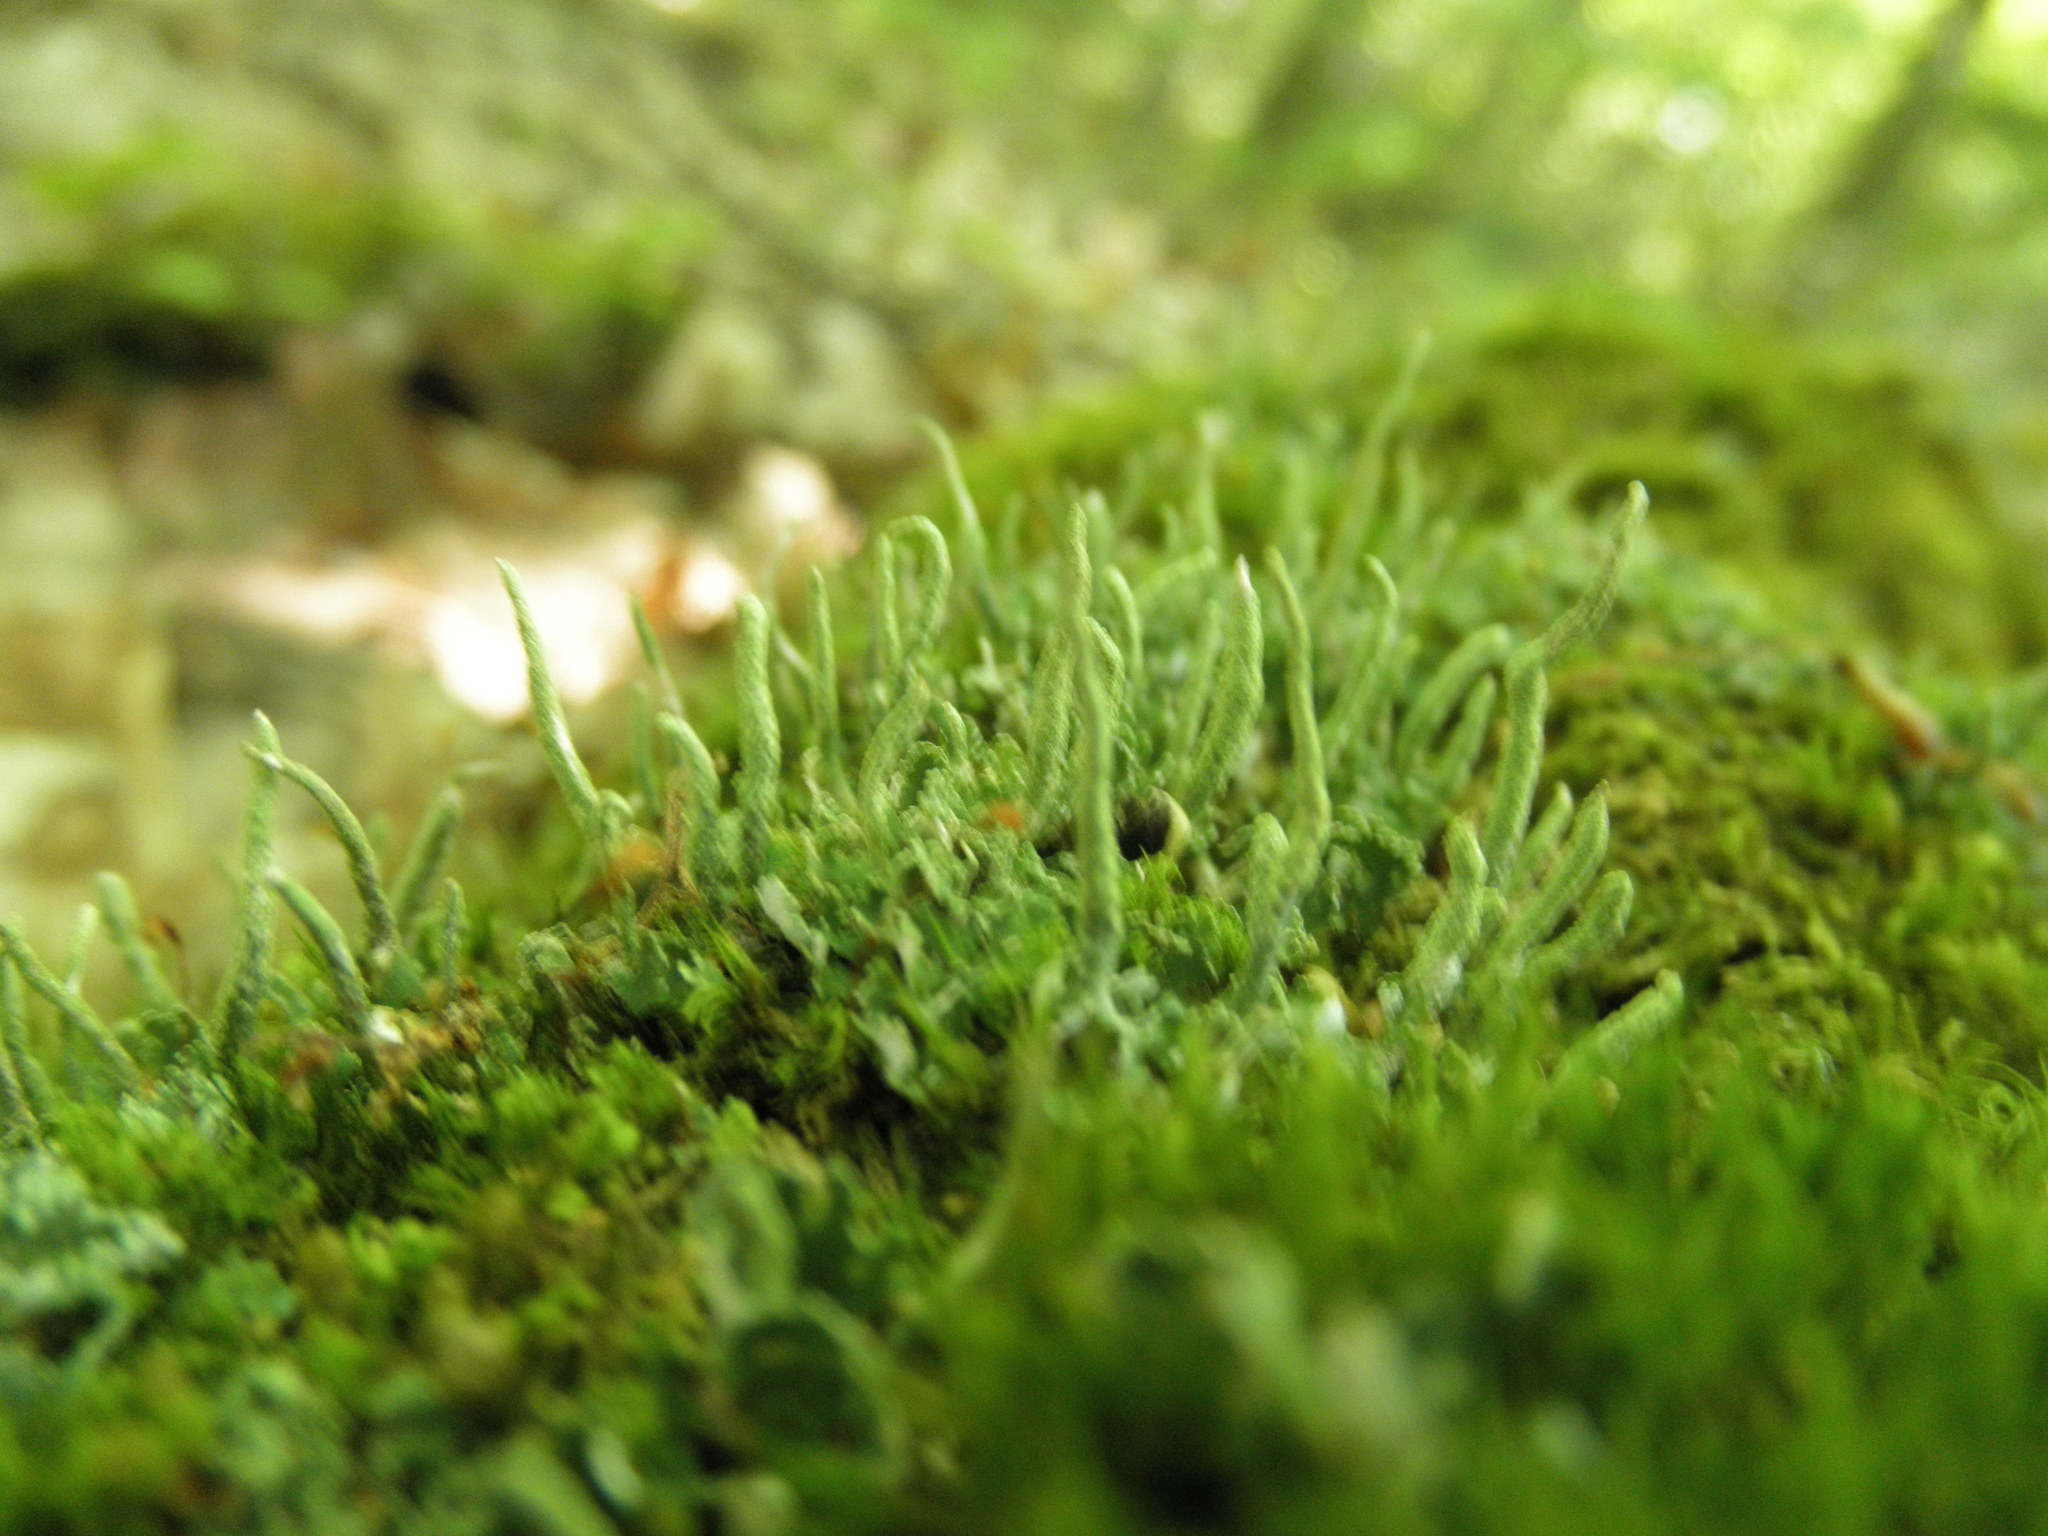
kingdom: Fungi
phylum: Ascomycota
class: Lecanoromycetes
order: Lecanorales
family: Cladoniaceae
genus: Cladonia
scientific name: Cladonia coniocraea
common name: Common powderhorn
